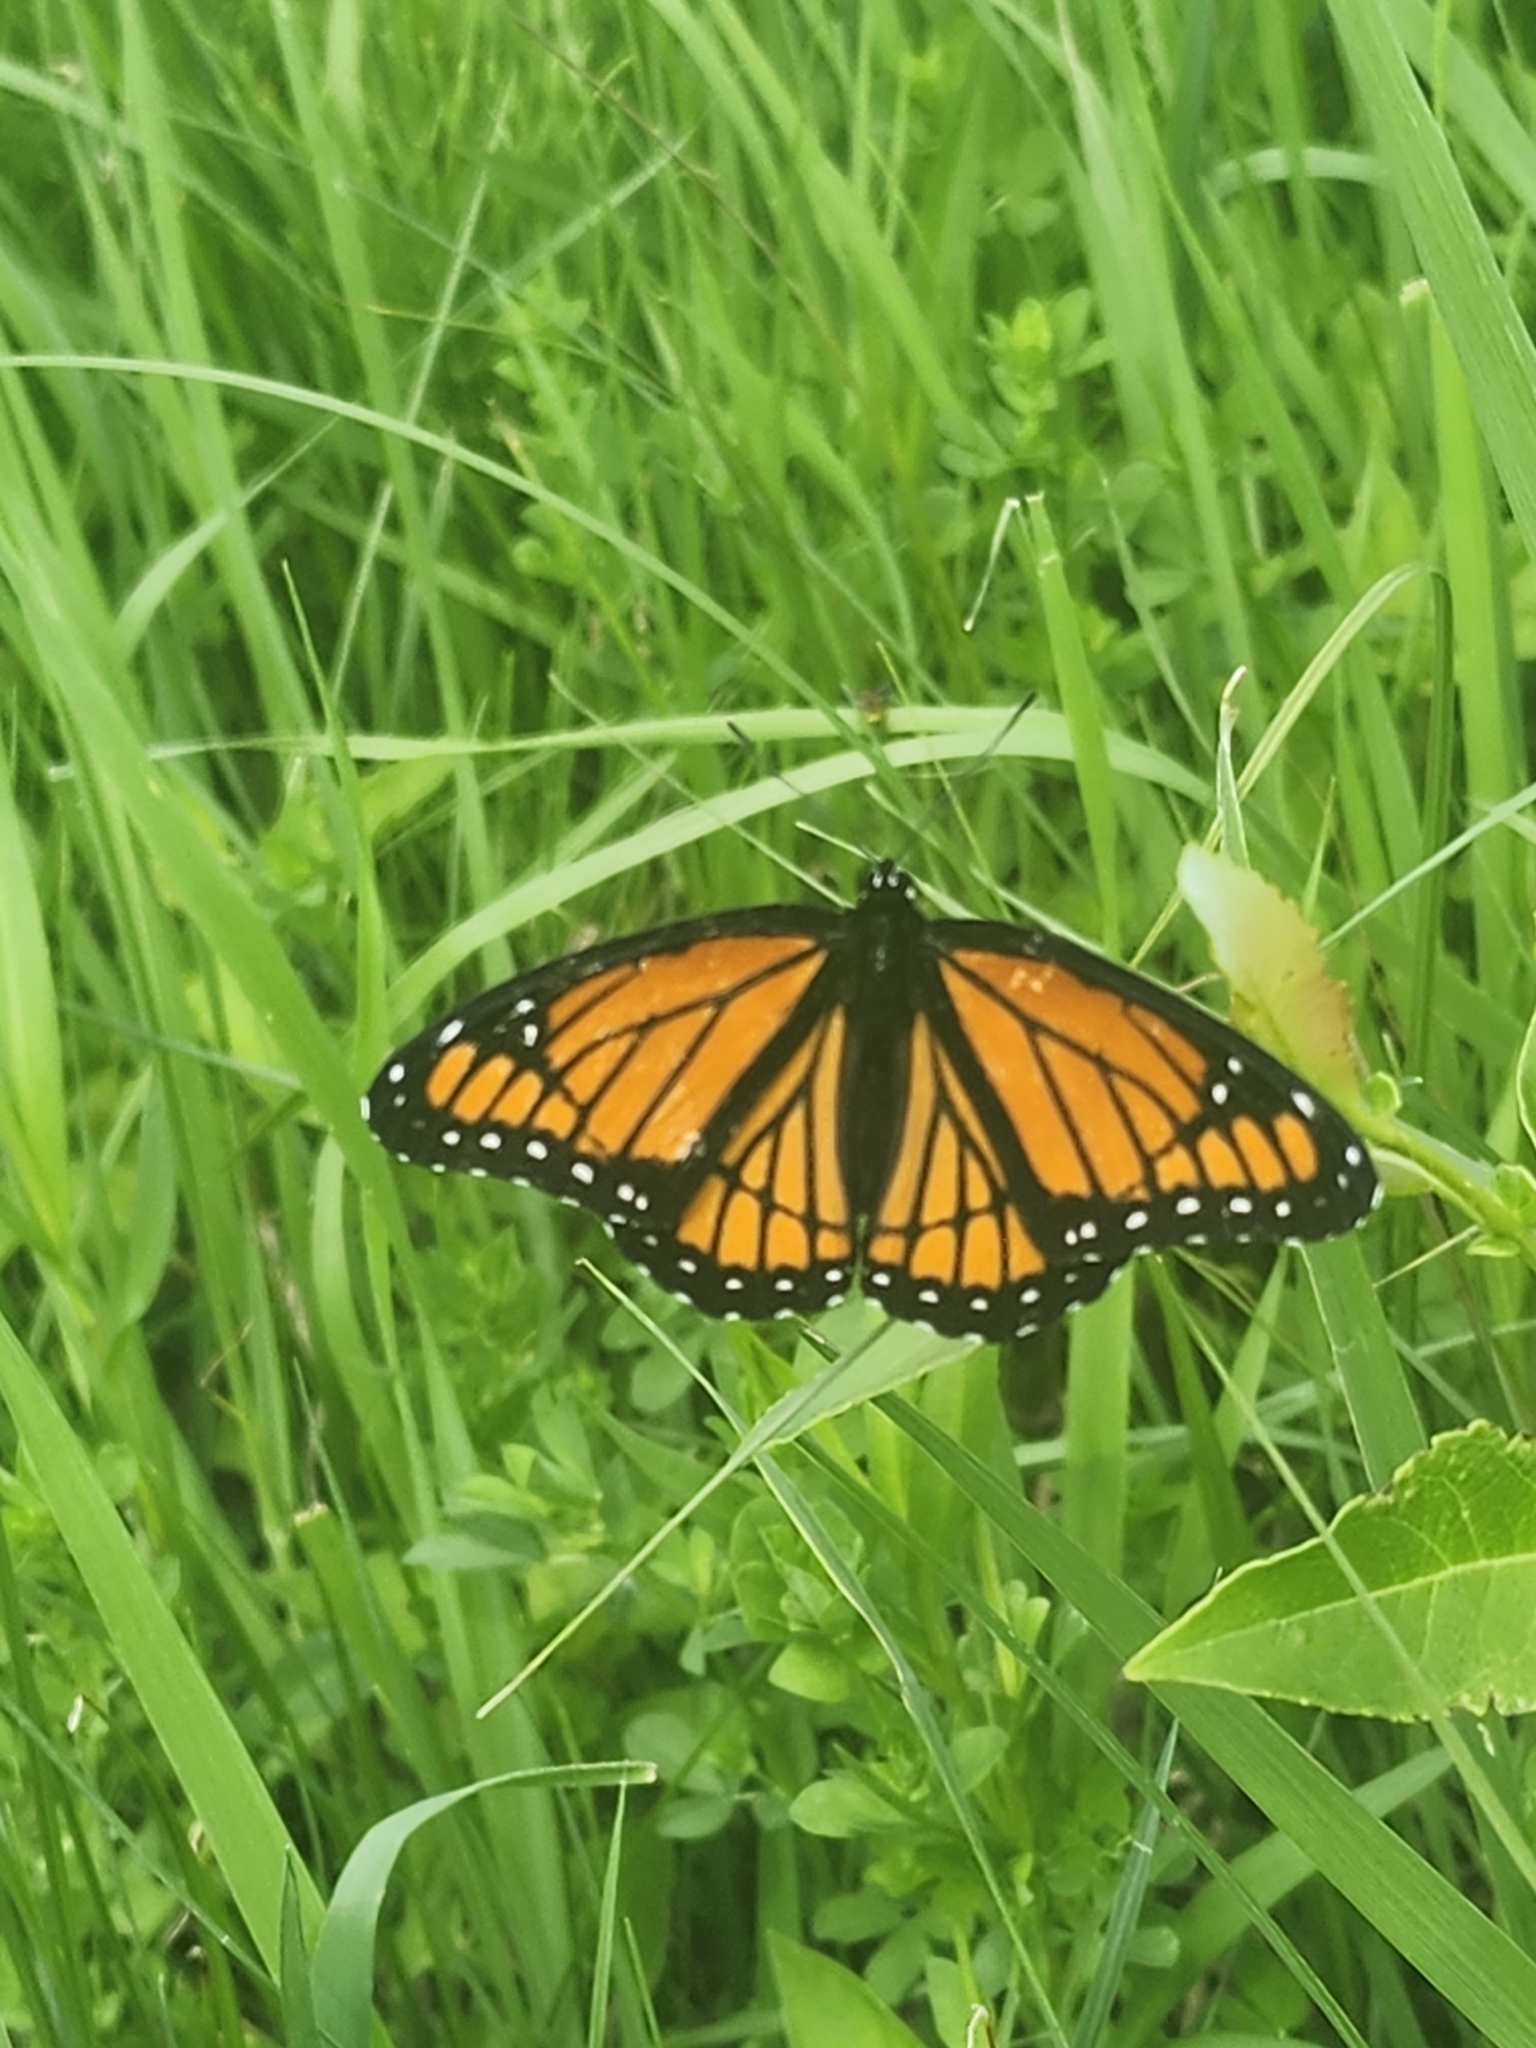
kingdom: Animalia
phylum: Arthropoda
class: Insecta
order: Lepidoptera
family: Nymphalidae
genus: Limenitis
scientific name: Limenitis archippus
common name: Viceroy
